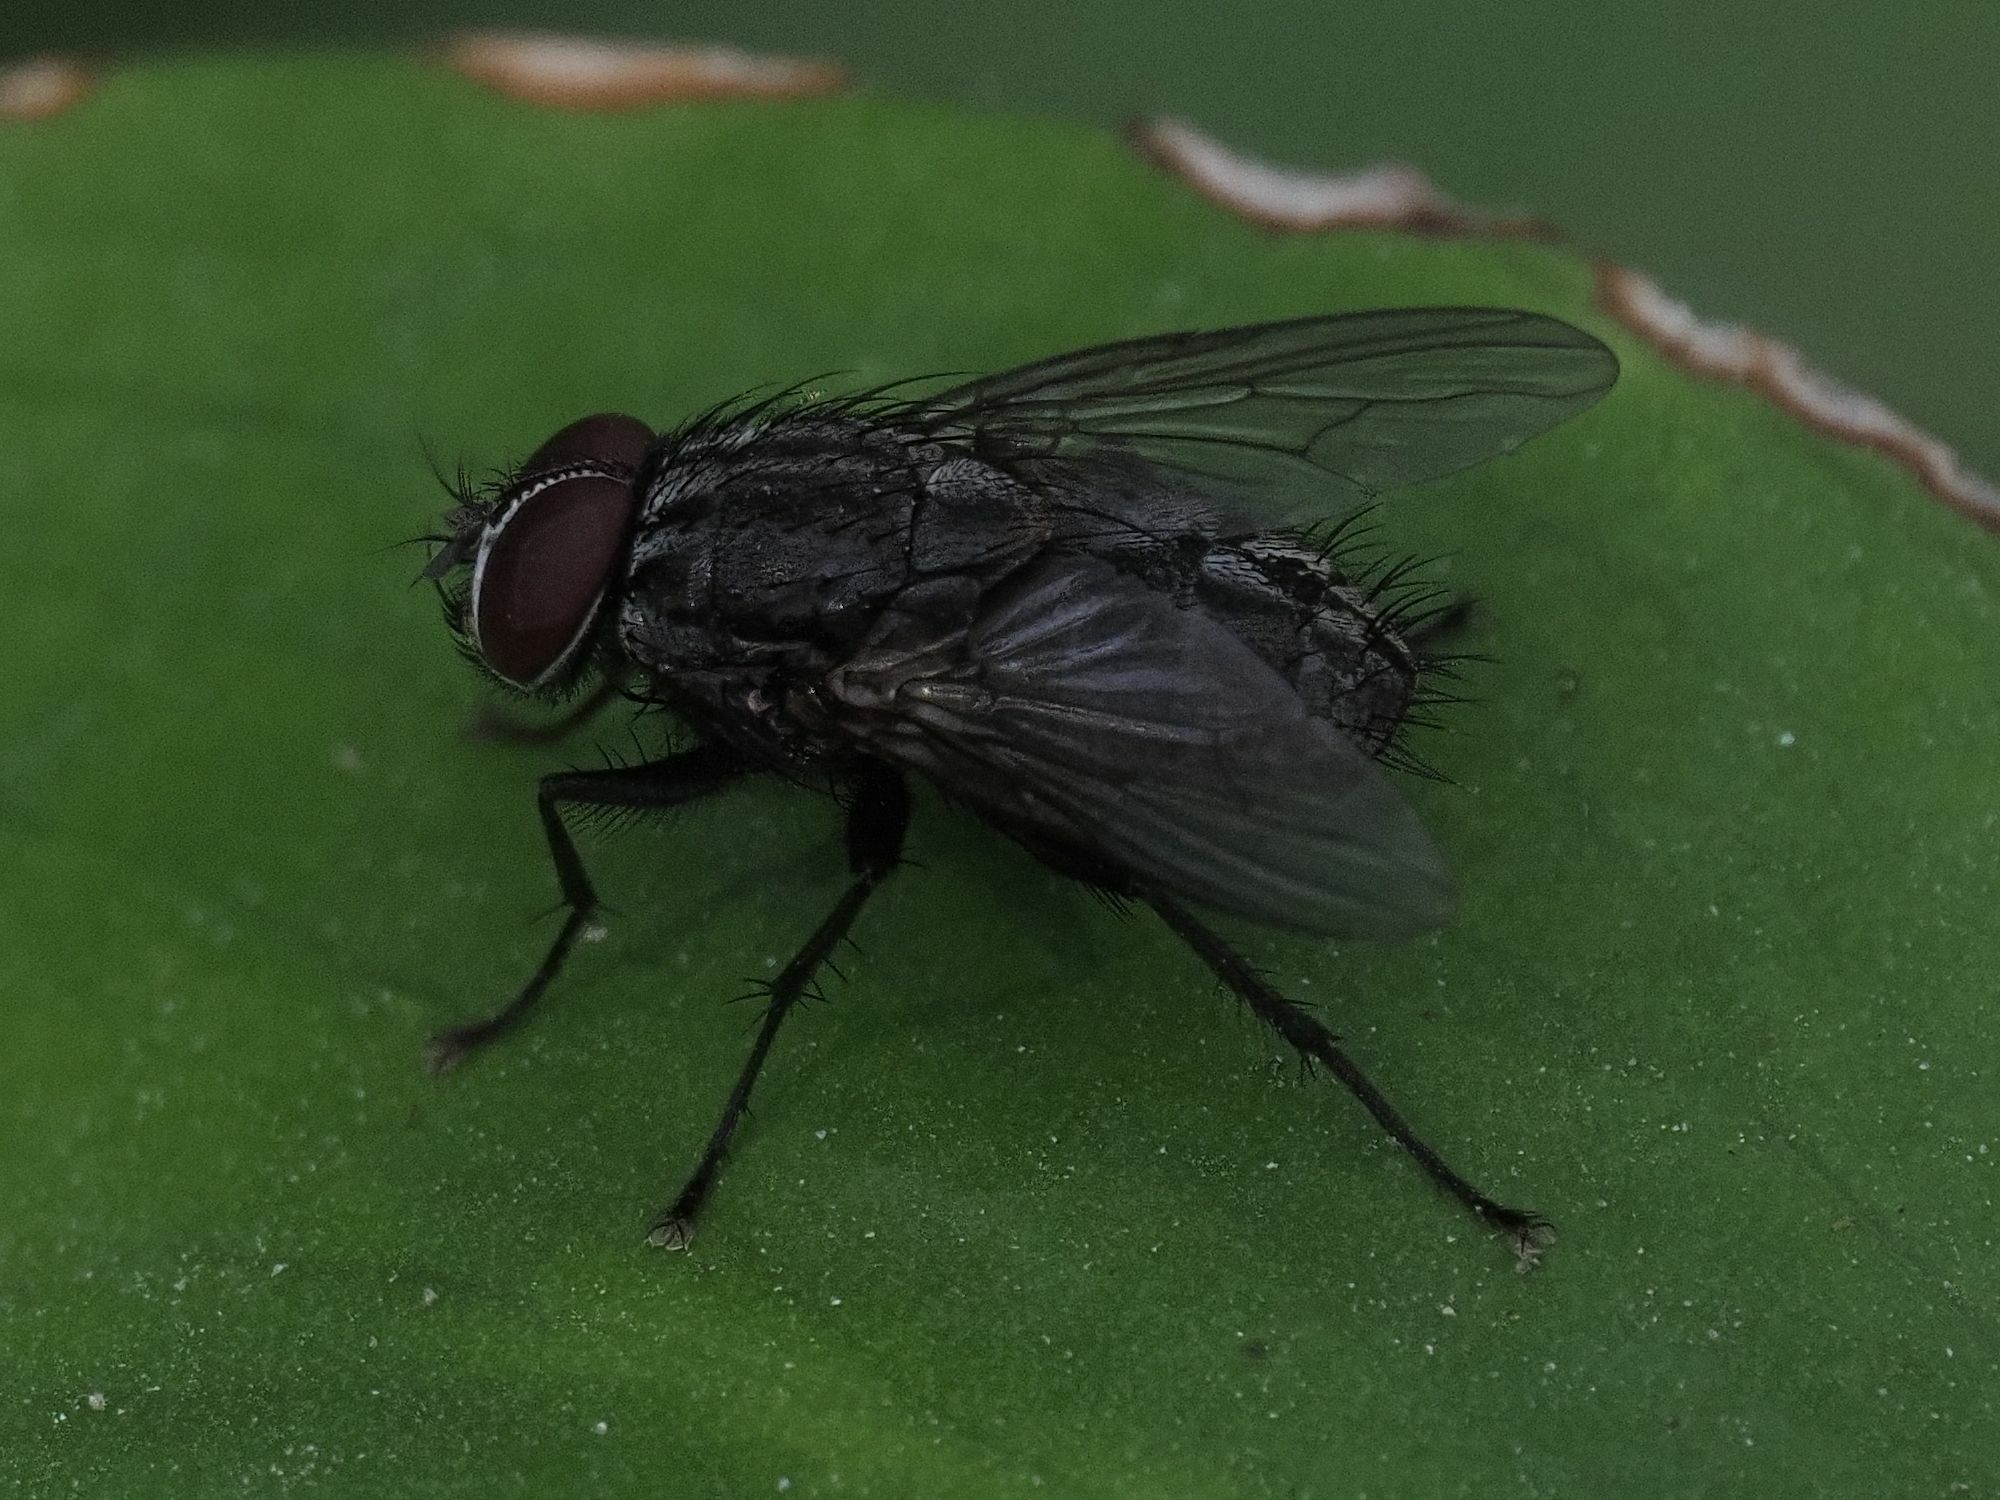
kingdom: Animalia
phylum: Arthropoda
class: Insecta
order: Diptera
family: Muscidae
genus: Muscina
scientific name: Muscina levida
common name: House fly
